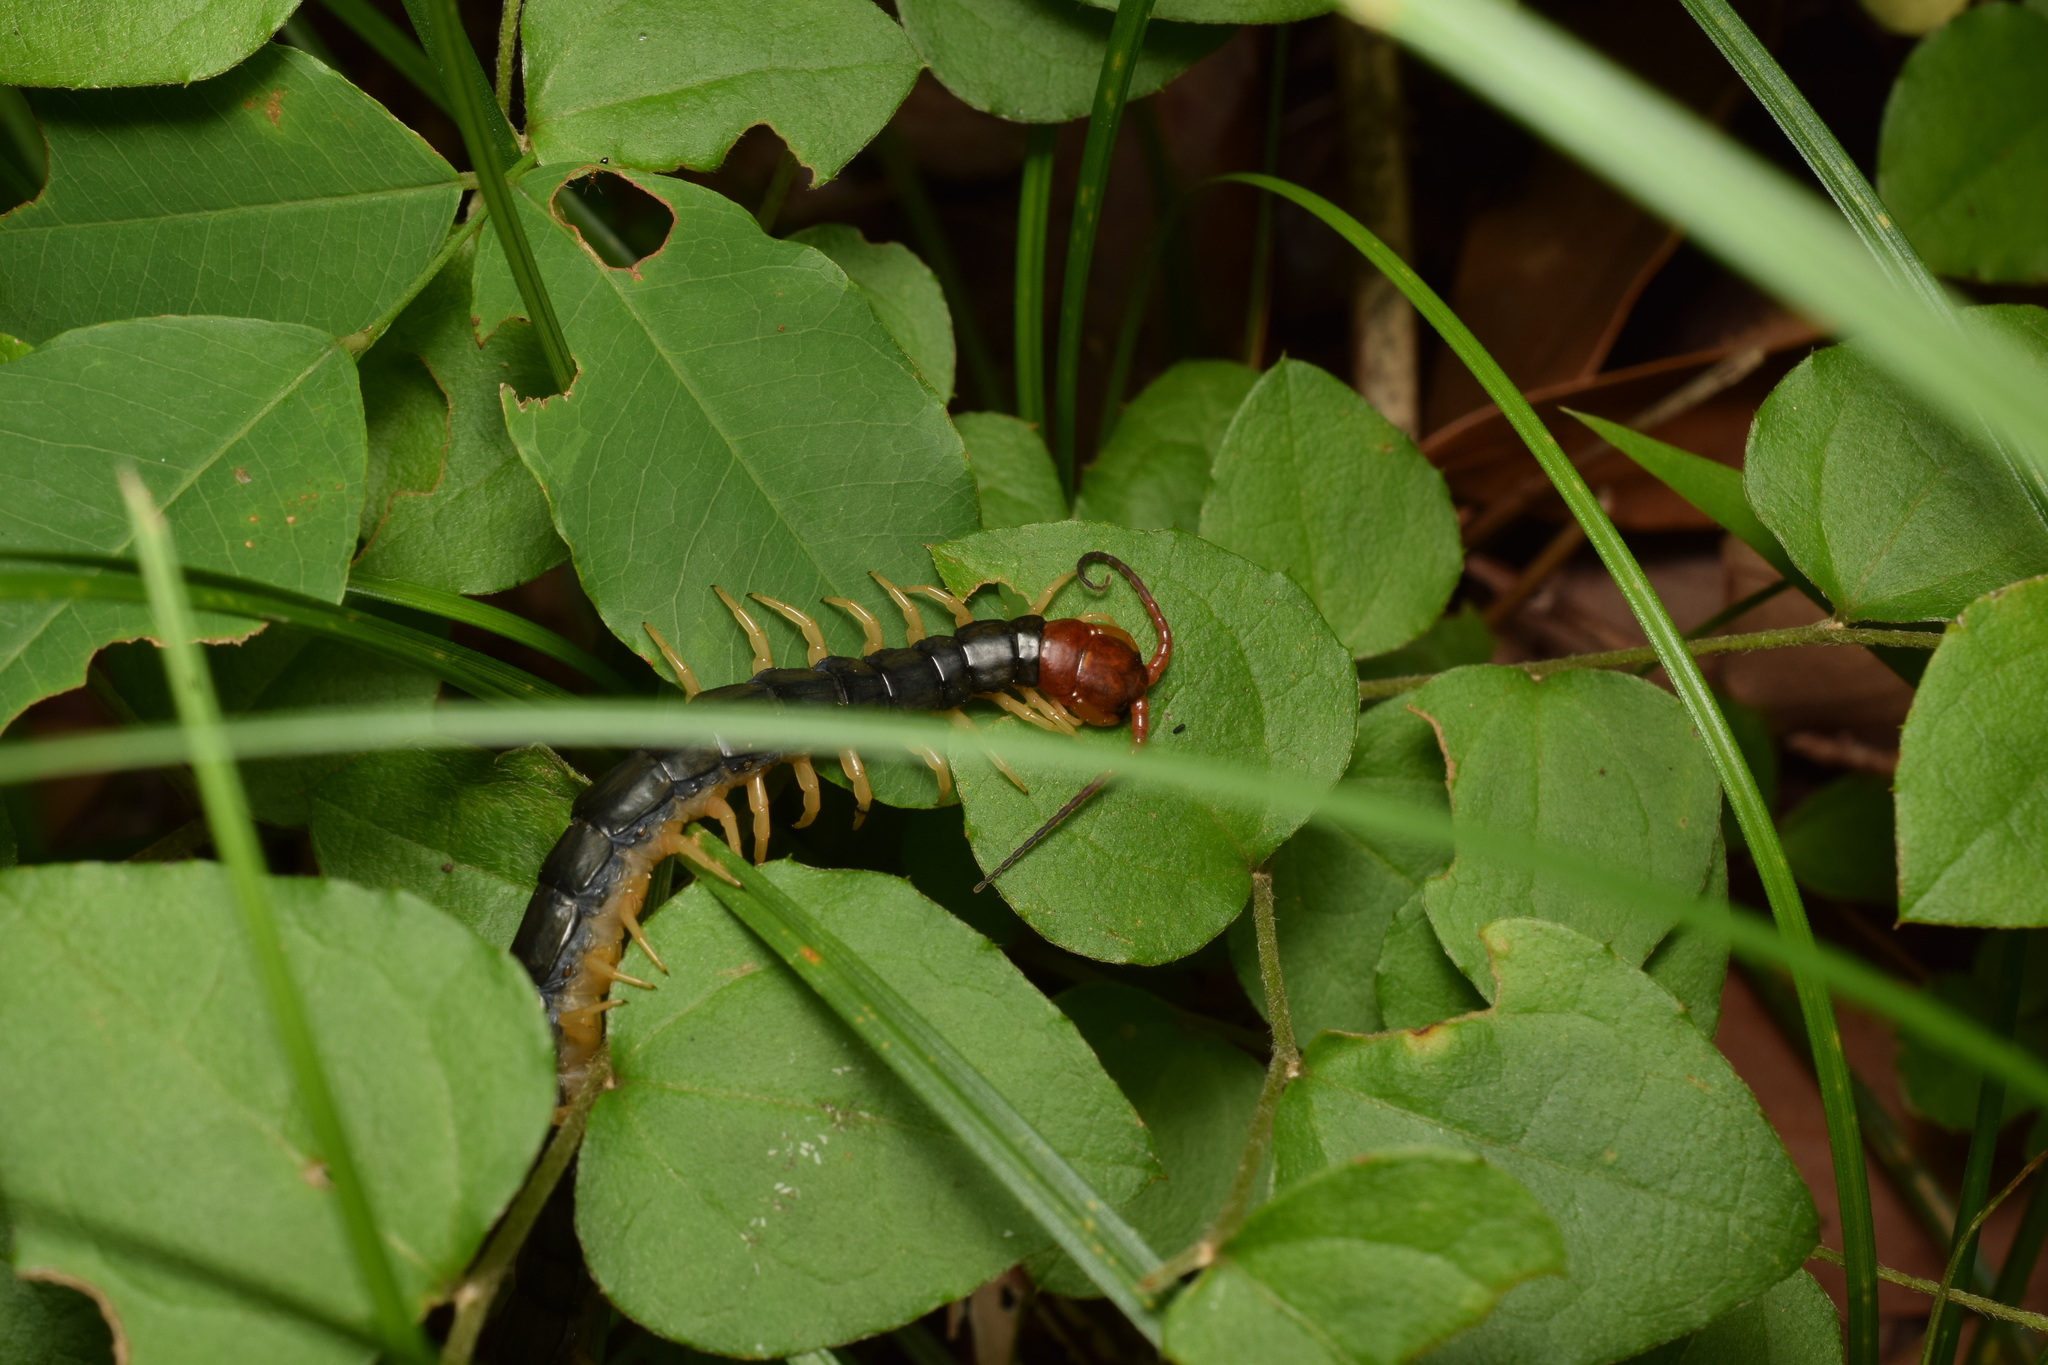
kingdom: Animalia
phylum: Arthropoda
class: Chilopoda
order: Scolopendromorpha
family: Scolopendridae
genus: Scolopendra
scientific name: Scolopendra mutilans
